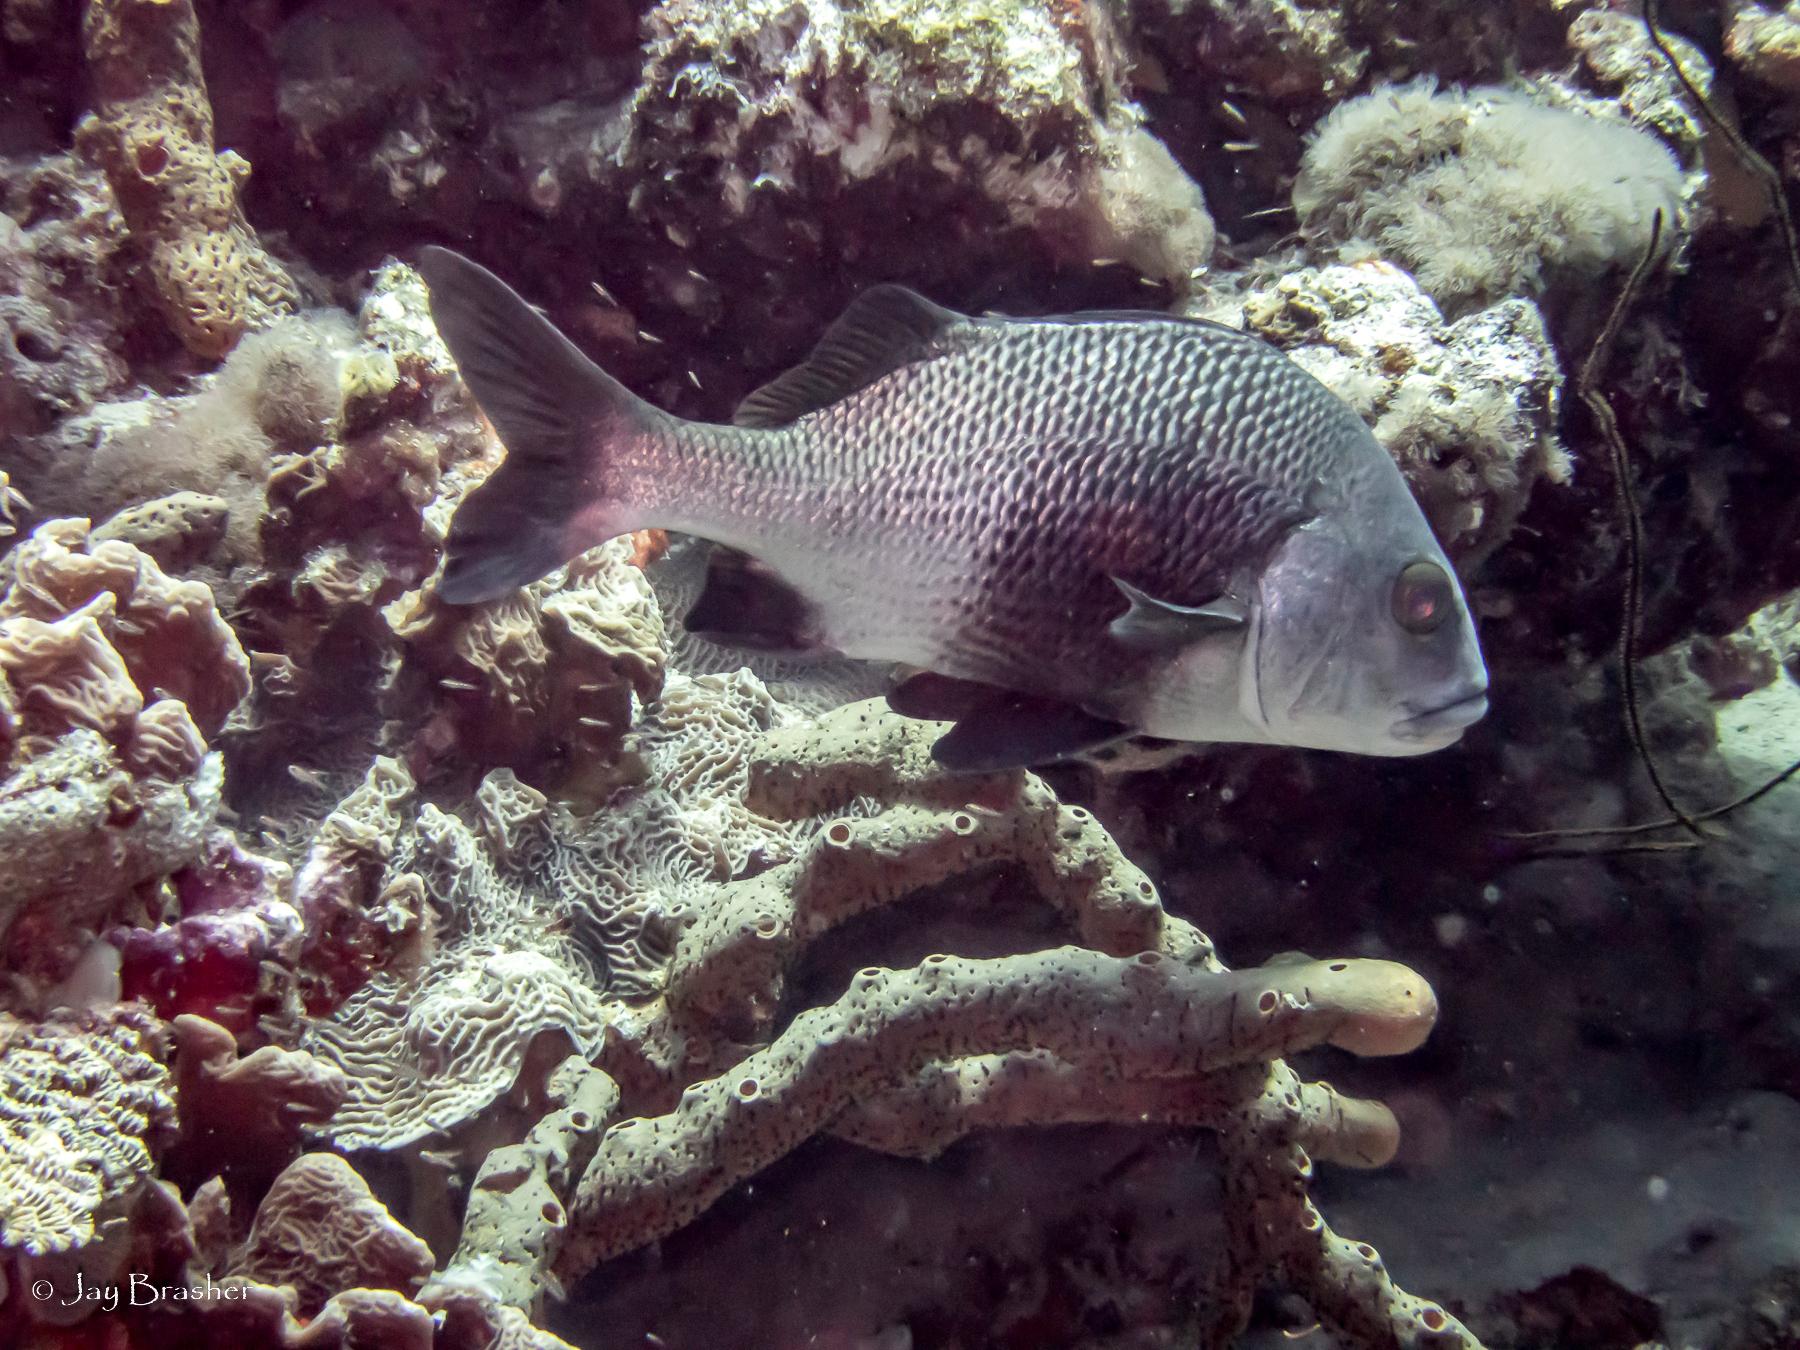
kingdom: Animalia
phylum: Porifera
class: Demospongiae
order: Agelasida
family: Agelasidae
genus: Agelas
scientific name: Agelas conifera
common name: Brown tube sponge
